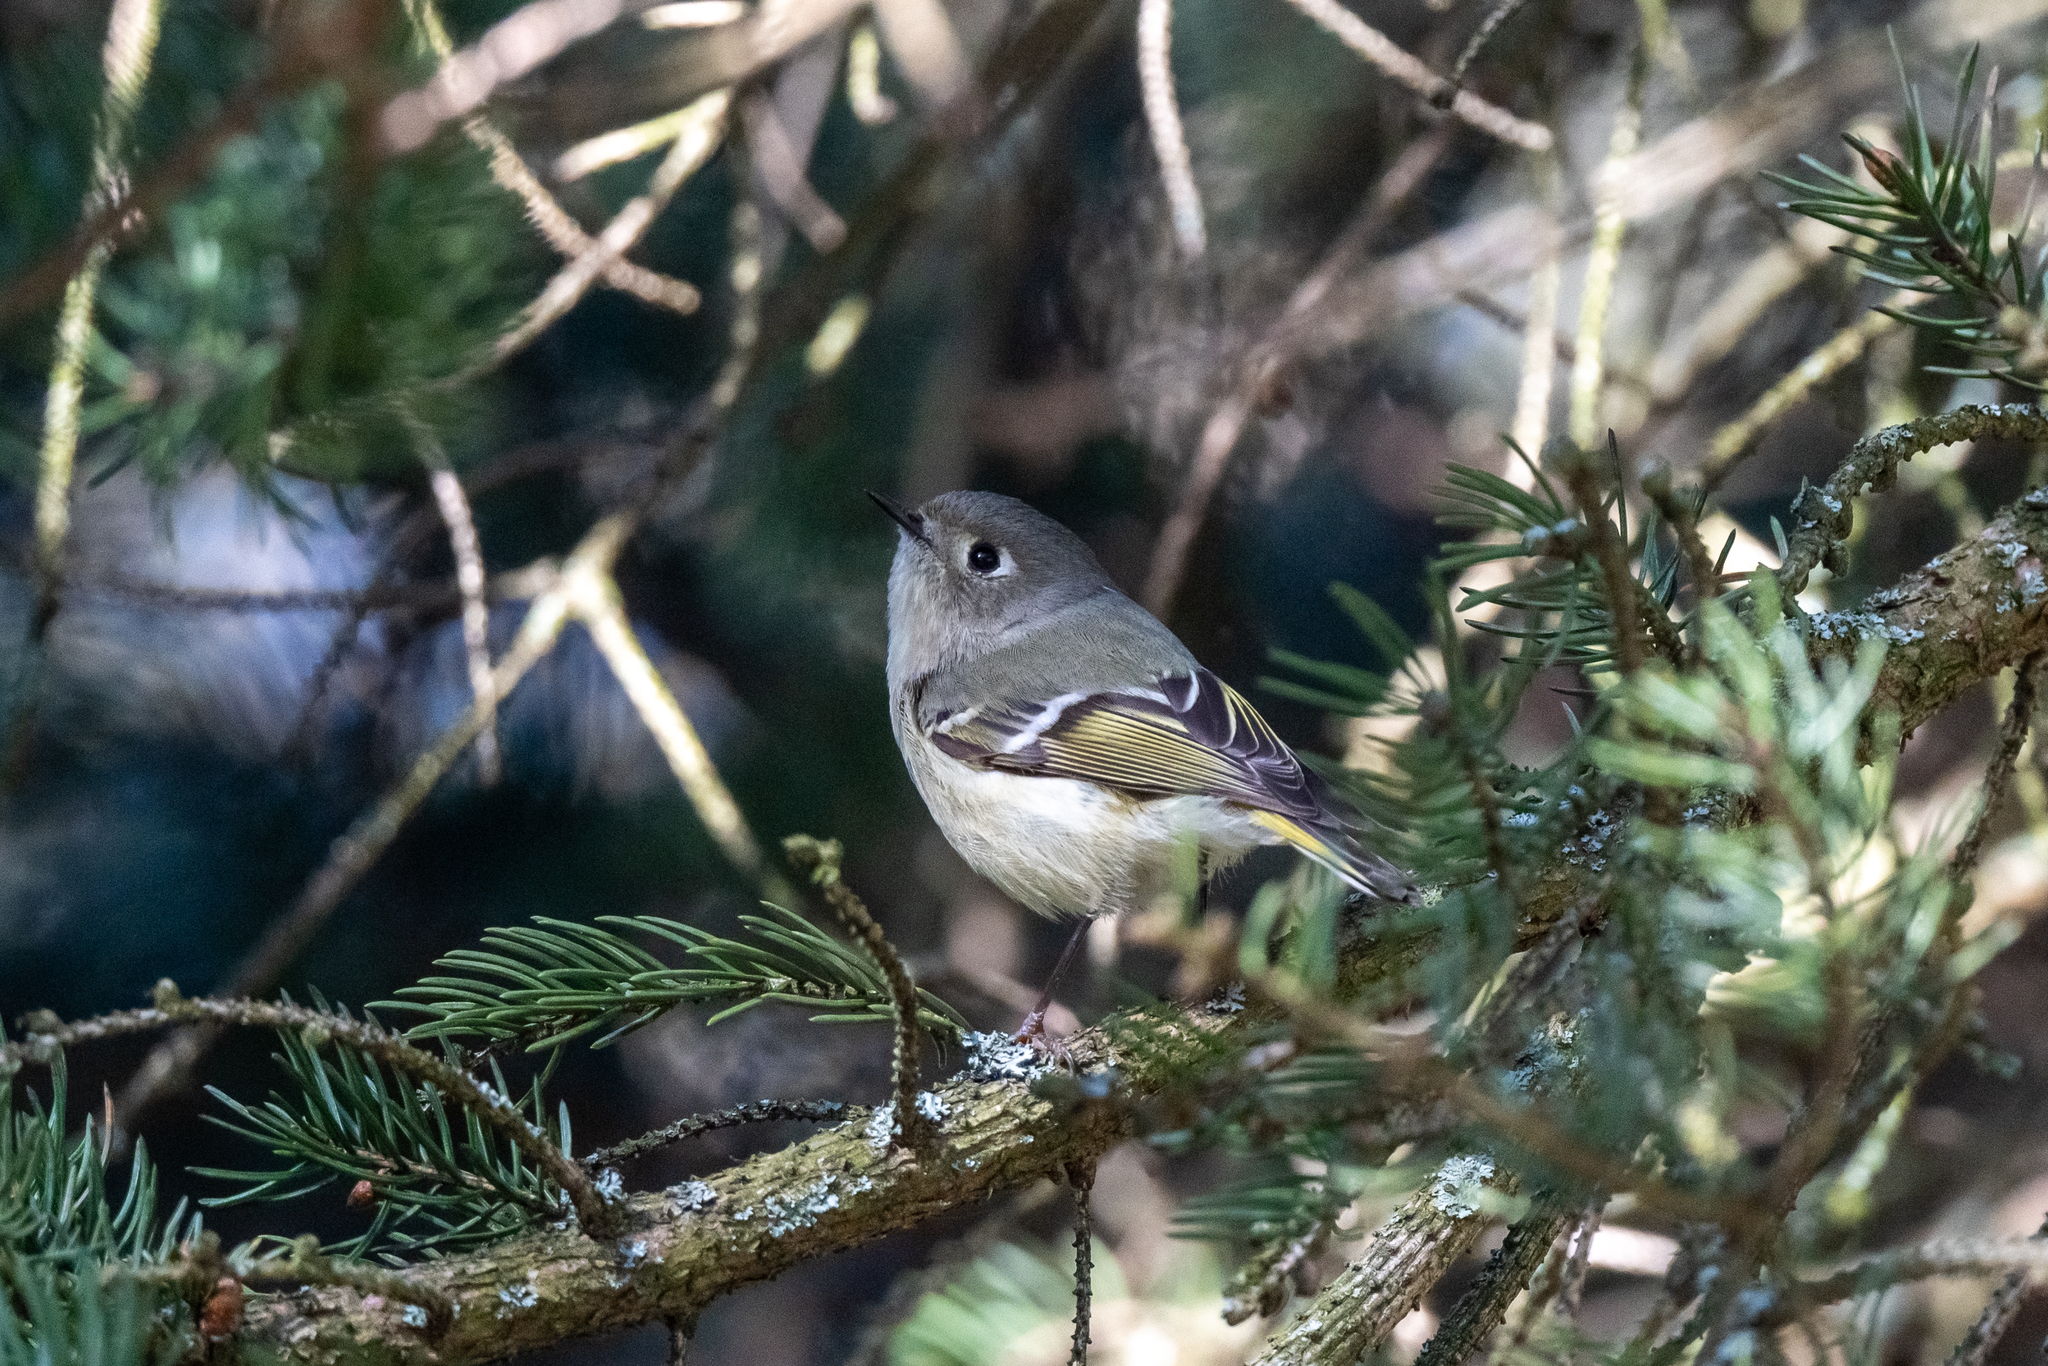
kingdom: Animalia
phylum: Chordata
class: Aves
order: Passeriformes
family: Regulidae
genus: Regulus
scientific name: Regulus calendula
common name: Ruby-crowned kinglet
